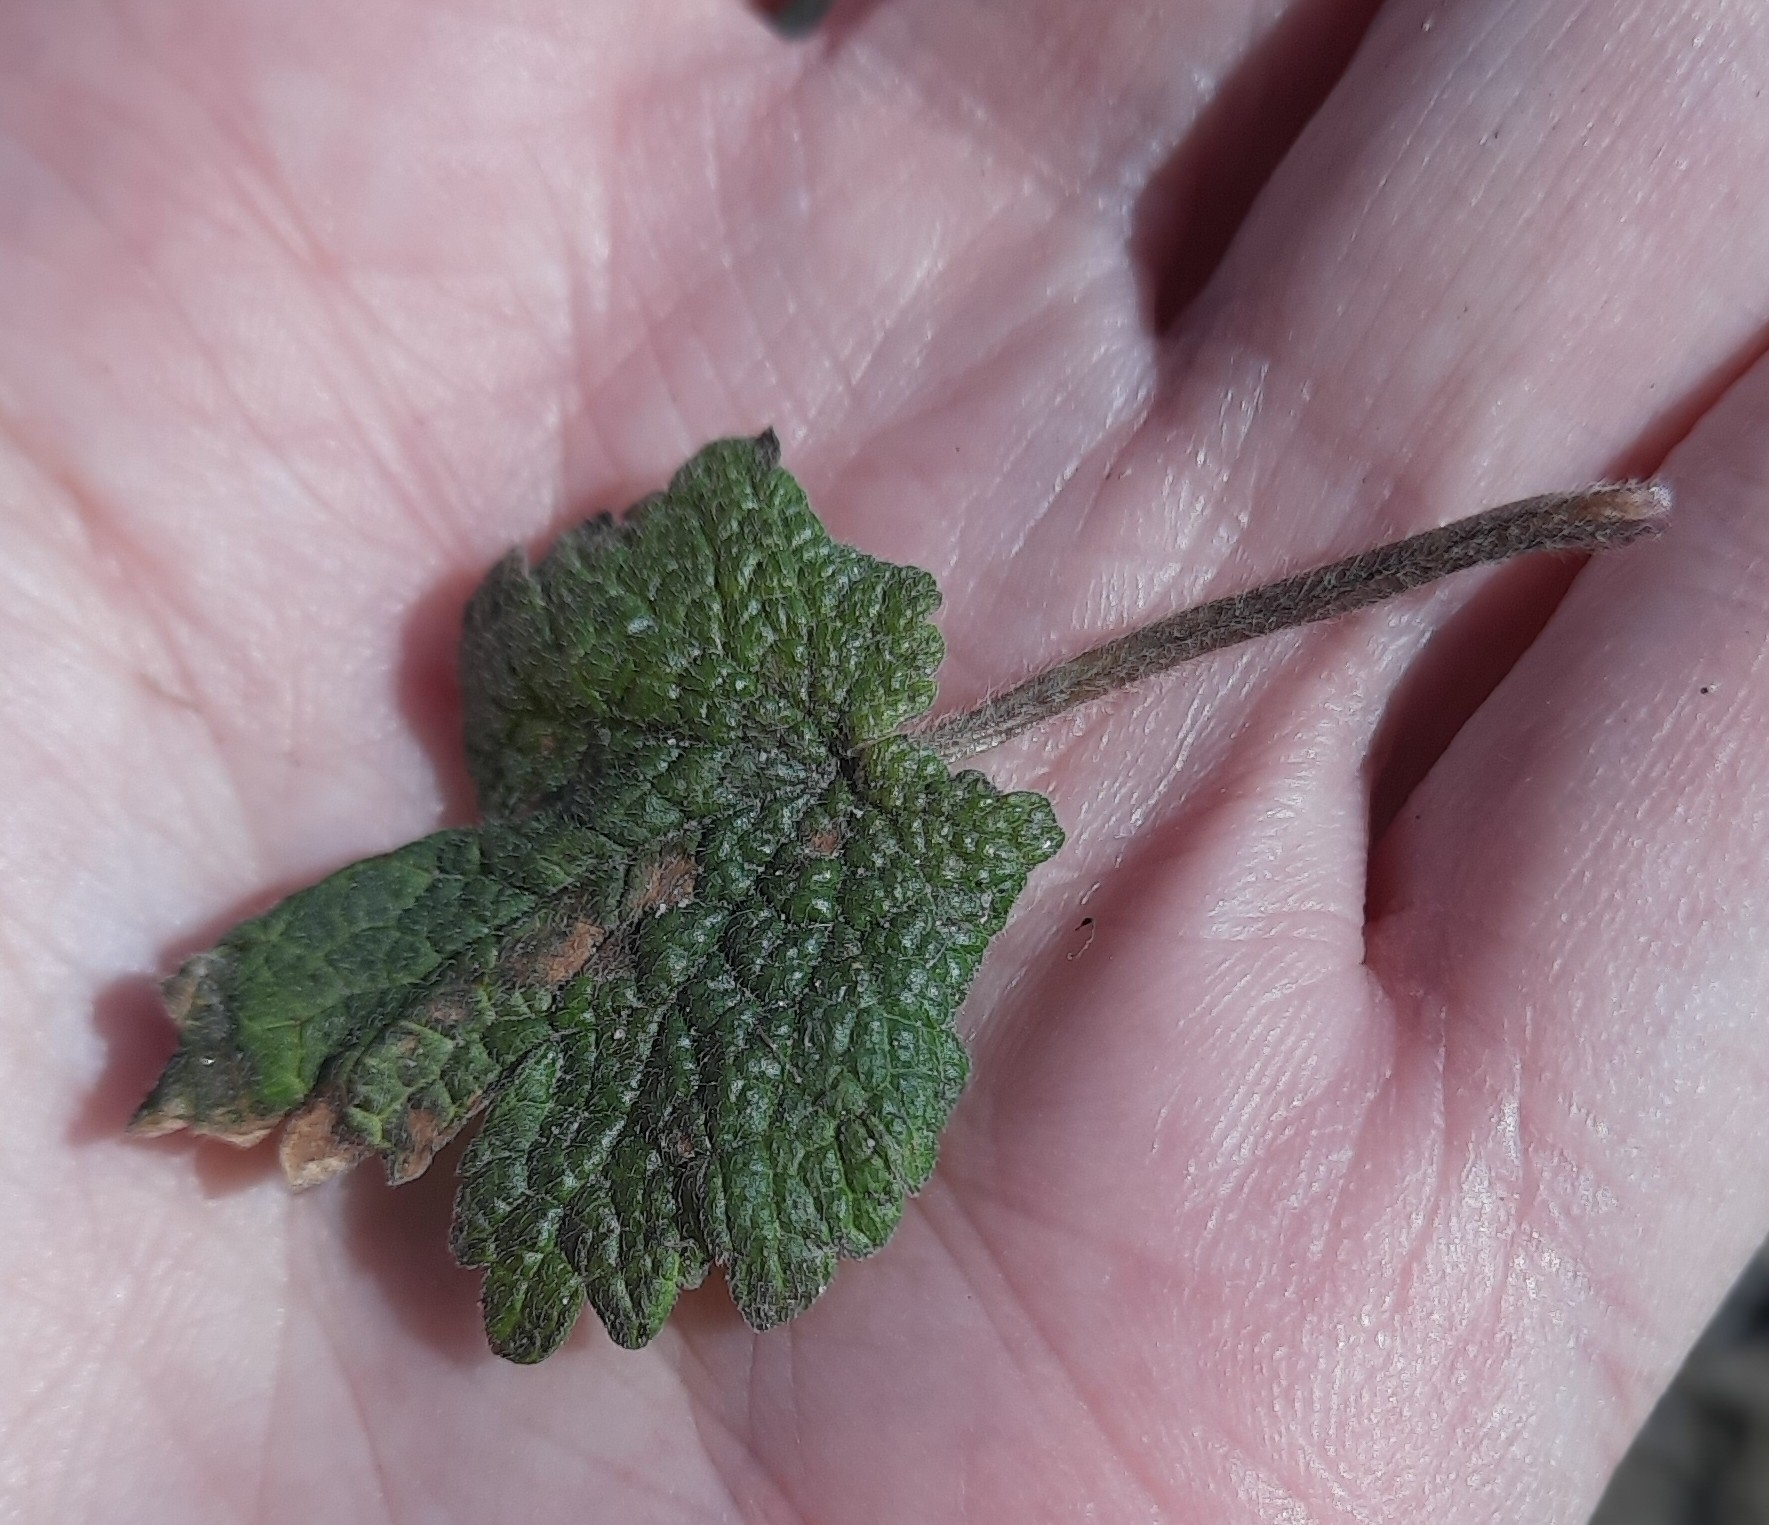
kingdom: Plantae
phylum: Tracheophyta
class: Magnoliopsida
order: Lamiales
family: Lamiaceae
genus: Leonurus
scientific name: Leonurus quinquelobatus
